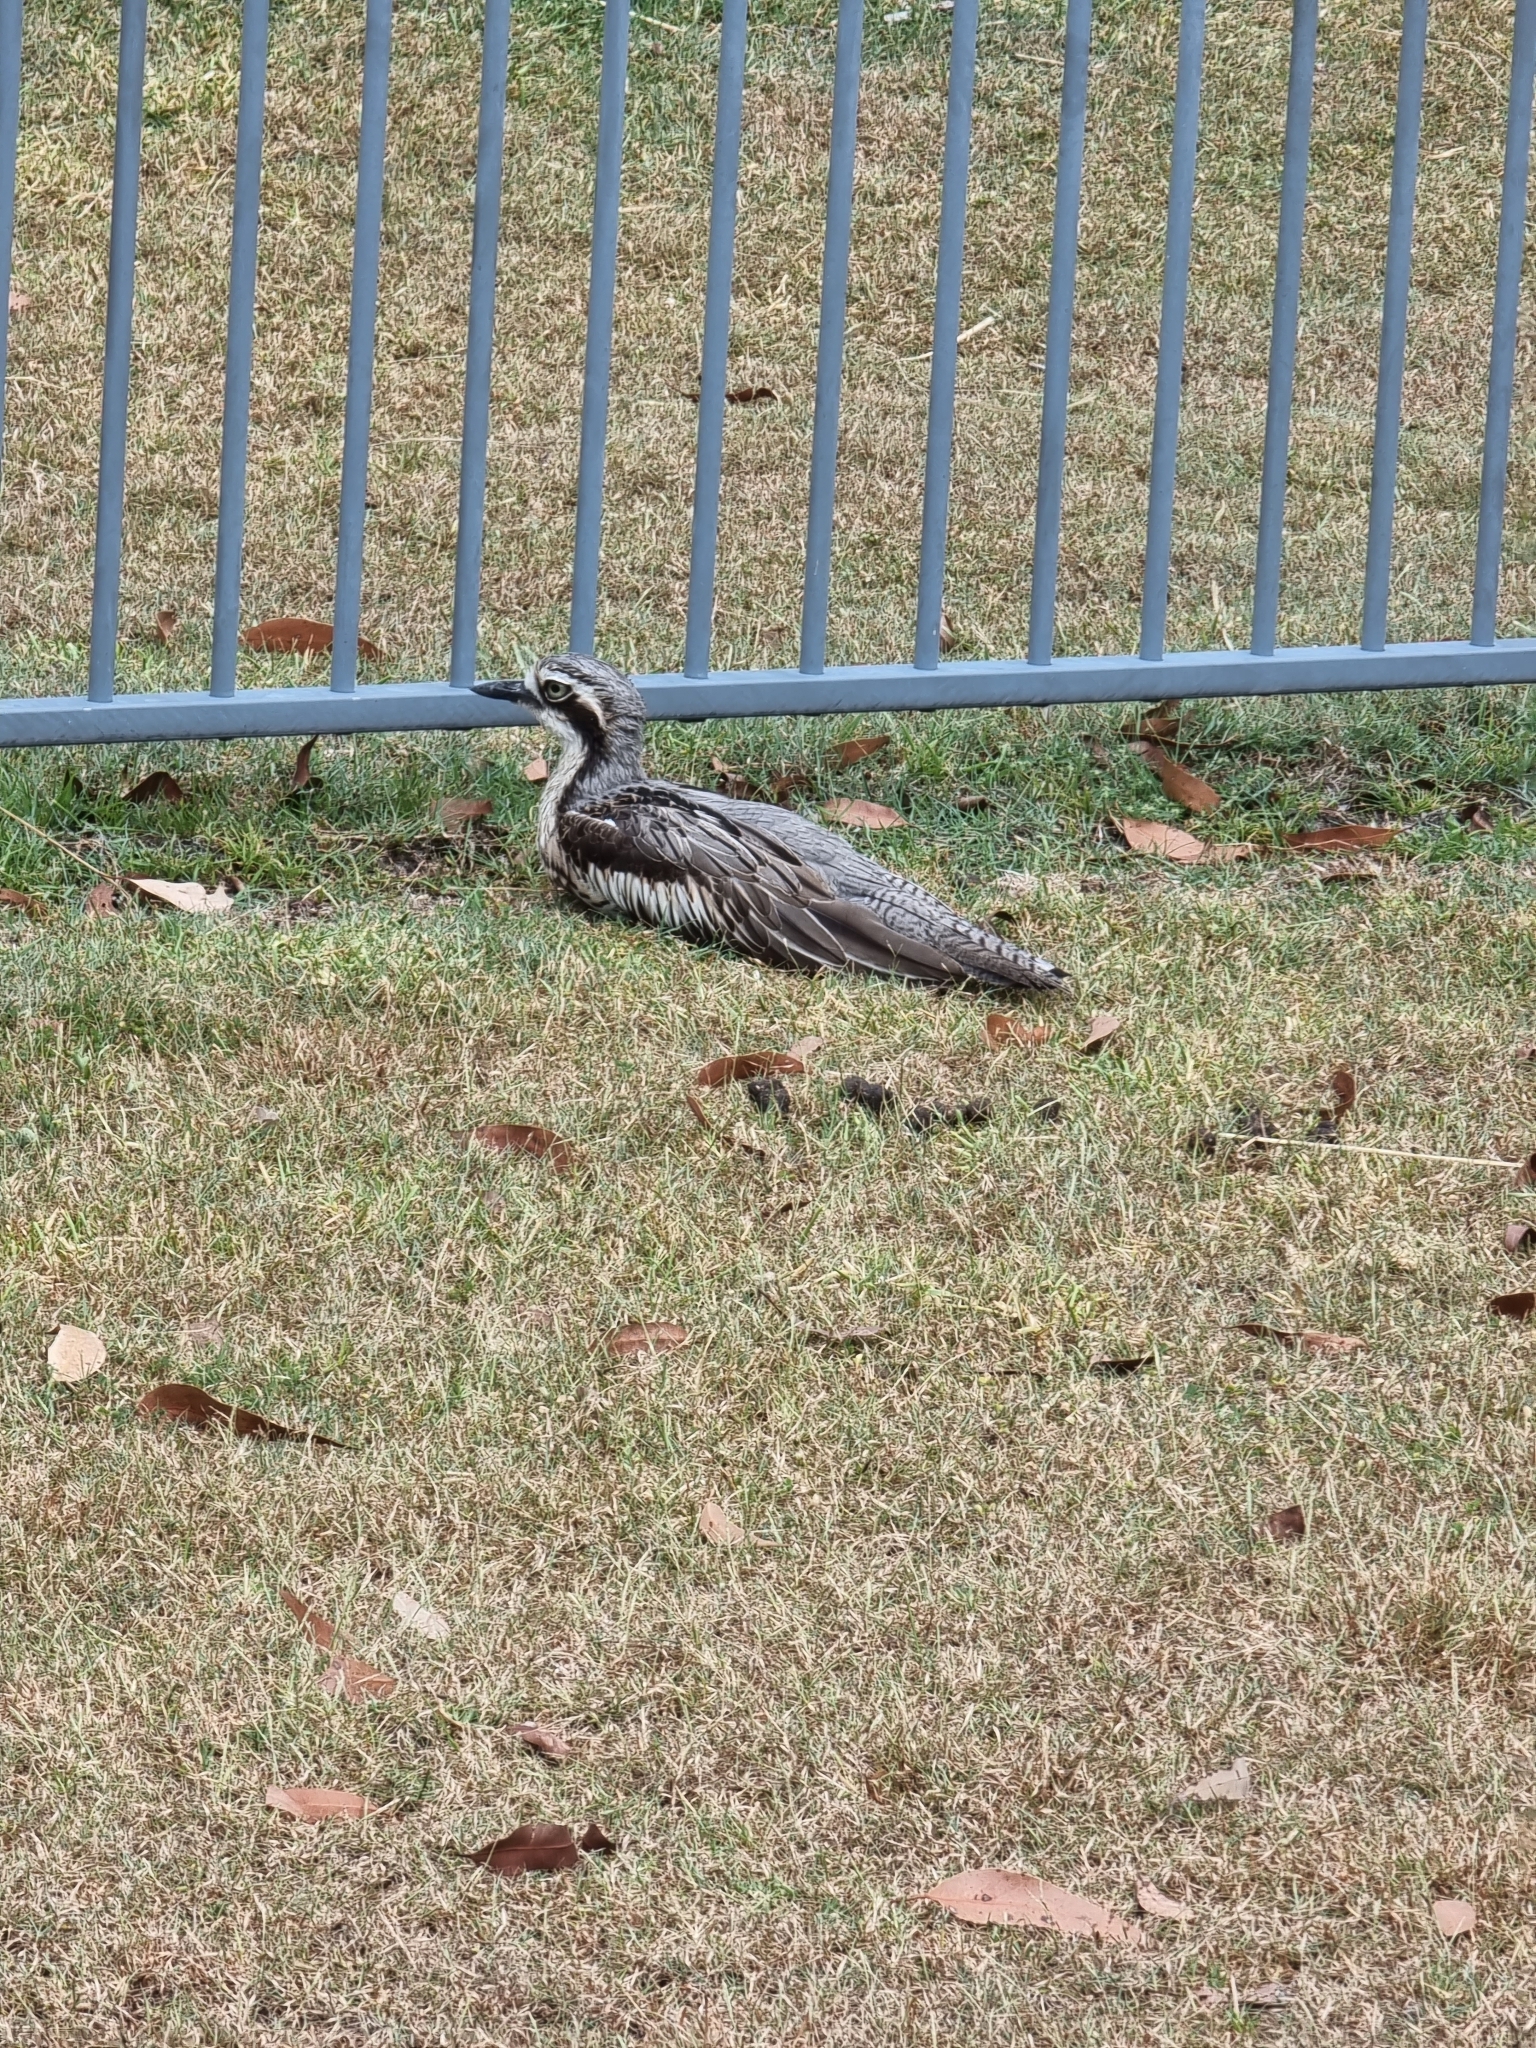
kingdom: Animalia
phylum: Chordata
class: Aves
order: Charadriiformes
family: Burhinidae
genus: Burhinus
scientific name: Burhinus grallarius
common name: Bush stone-curlew
